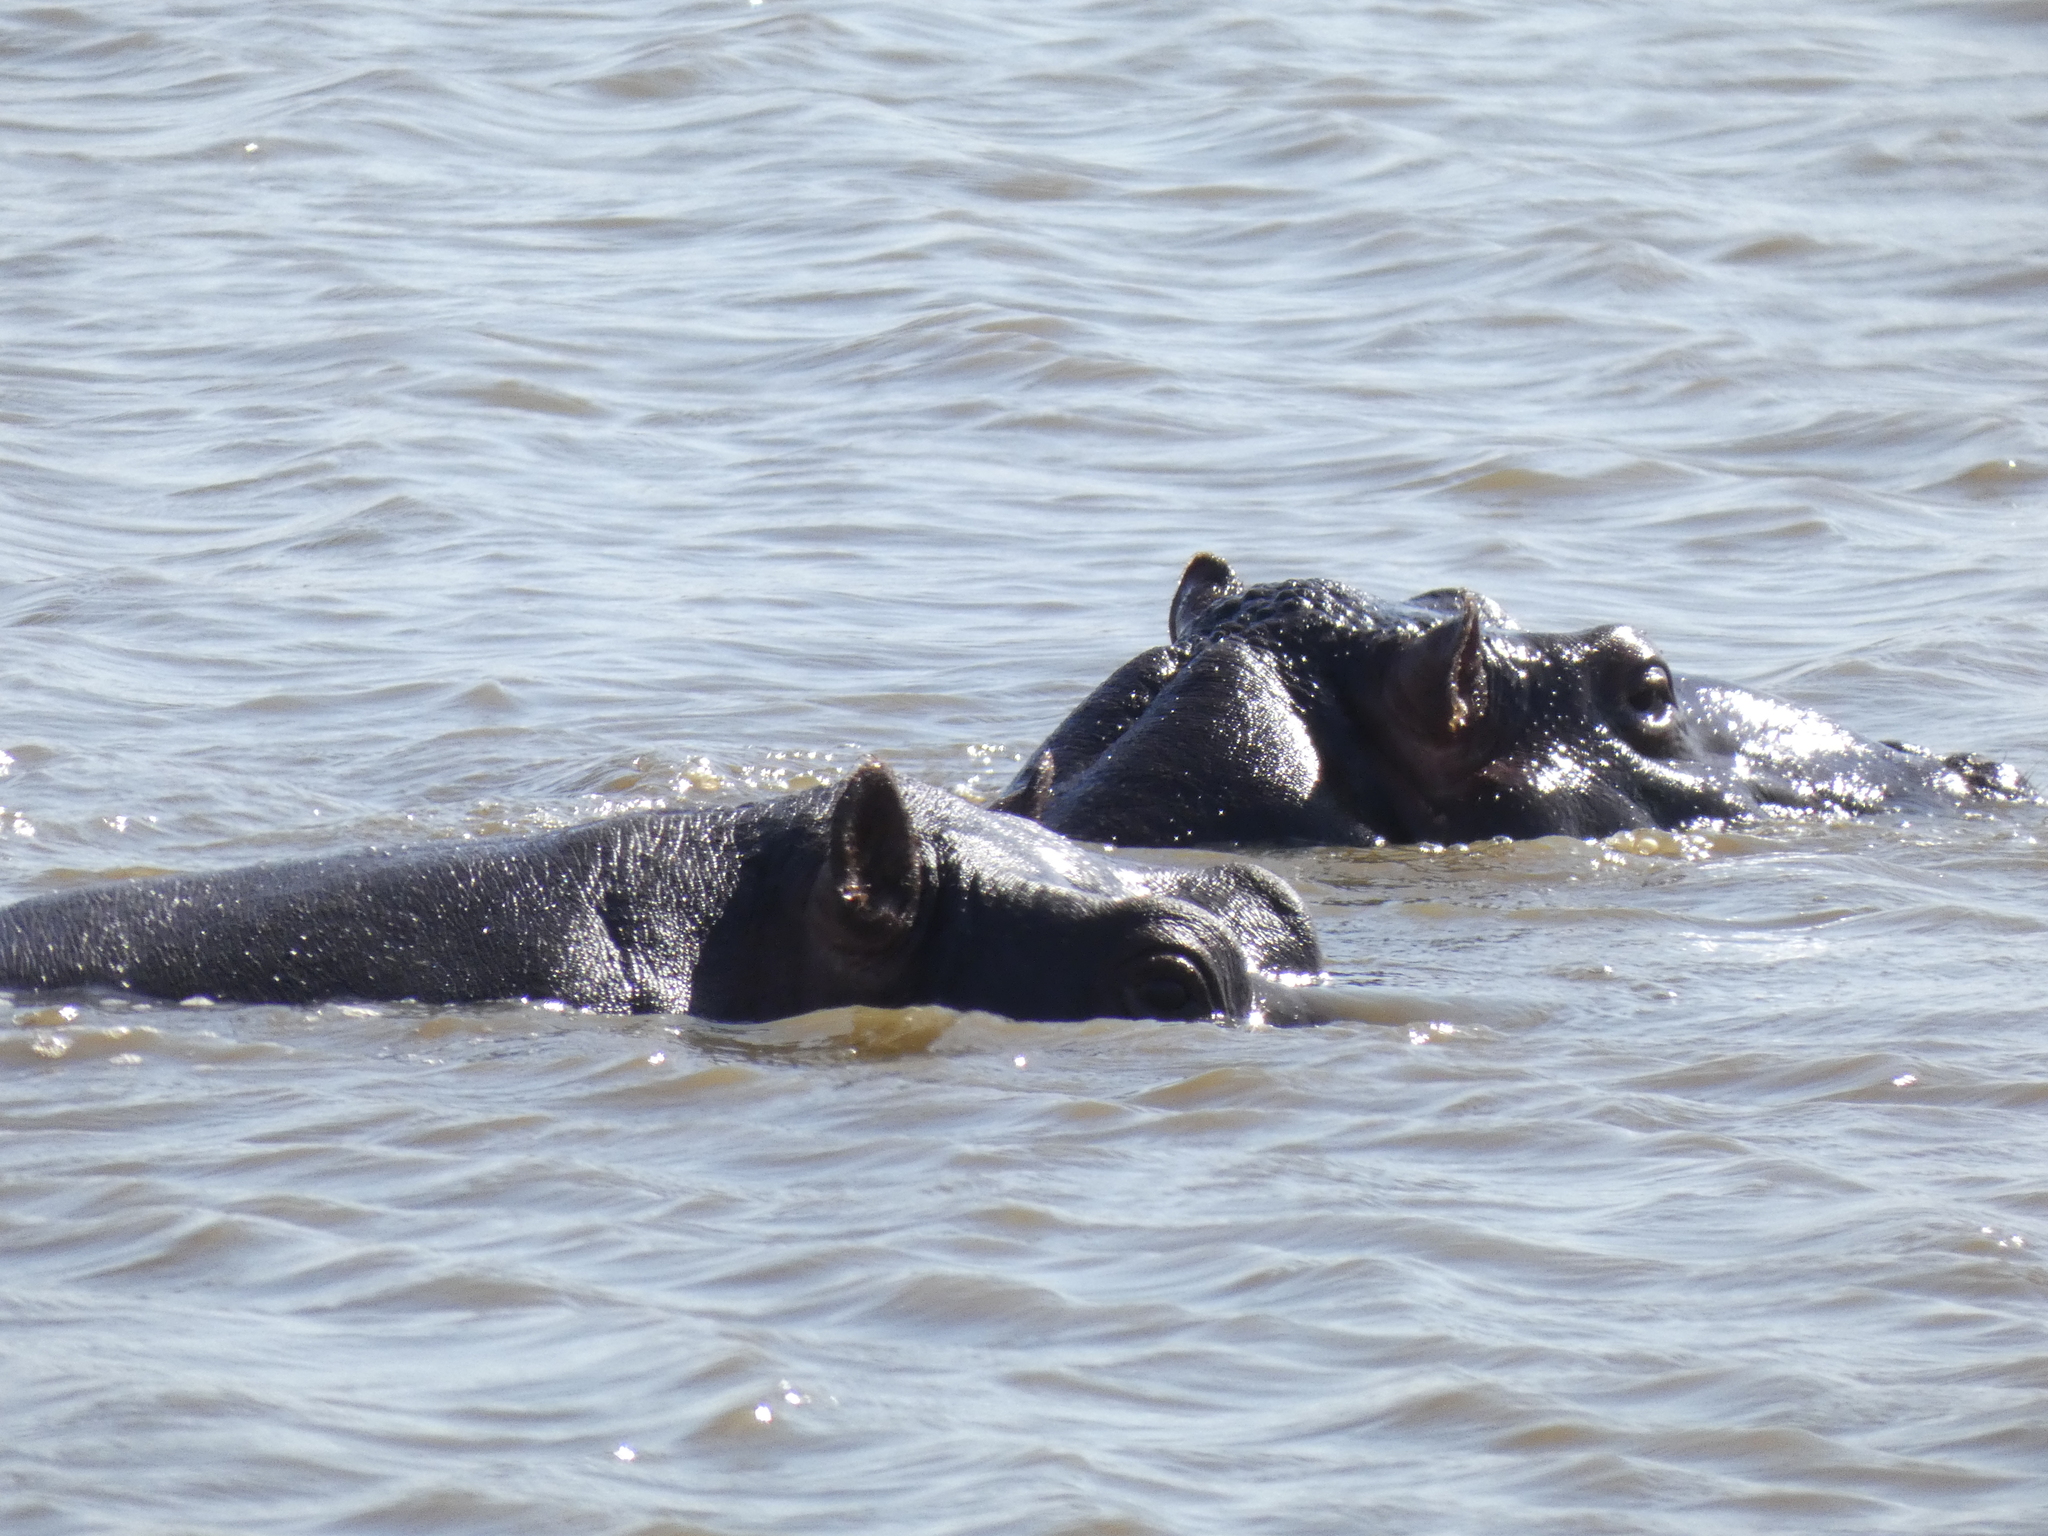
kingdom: Animalia
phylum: Chordata
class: Mammalia
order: Artiodactyla
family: Hippopotamidae
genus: Hippopotamus
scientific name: Hippopotamus amphibius
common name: Common hippopotamus
